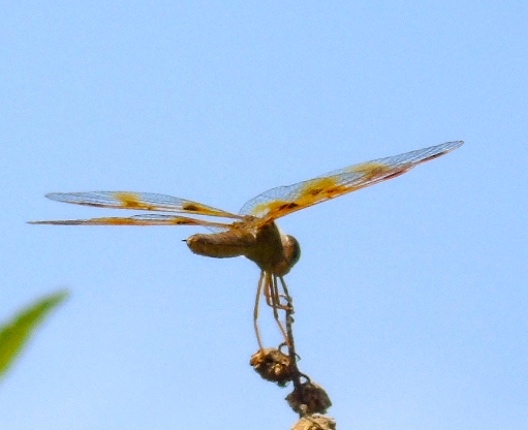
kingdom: Animalia
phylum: Arthropoda
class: Insecta
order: Odonata
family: Libellulidae
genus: Perithemis
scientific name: Perithemis
